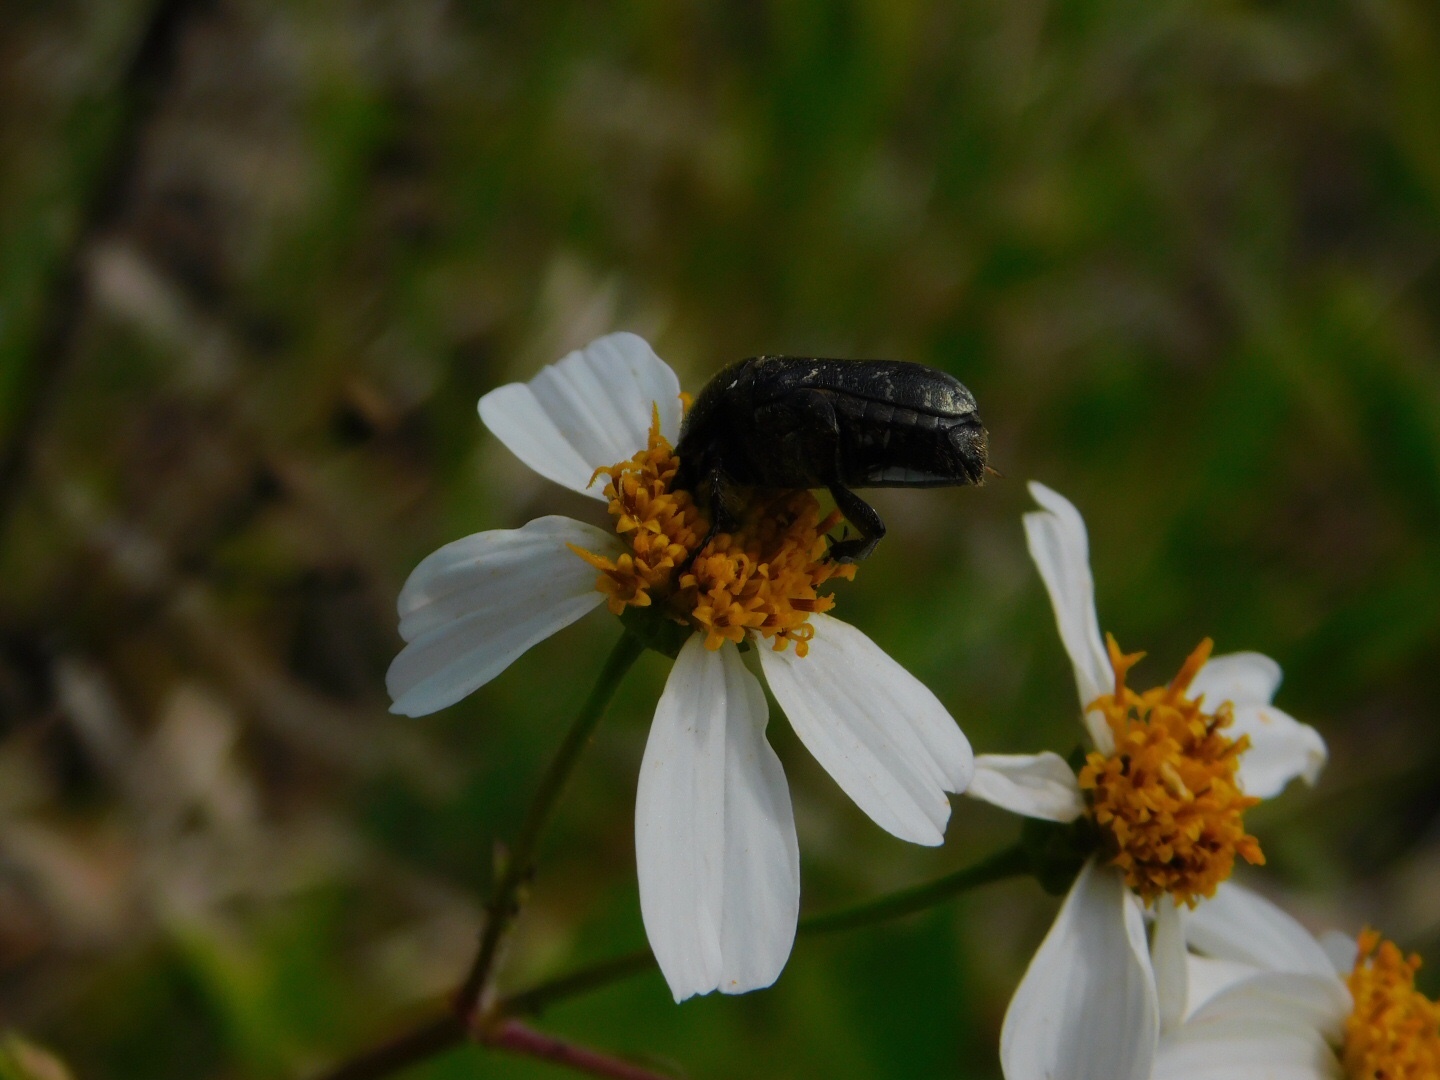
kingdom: Animalia
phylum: Arthropoda
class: Insecta
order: Coleoptera
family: Scarabaeidae
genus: Euphoria
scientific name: Euphoria sepulcralis
